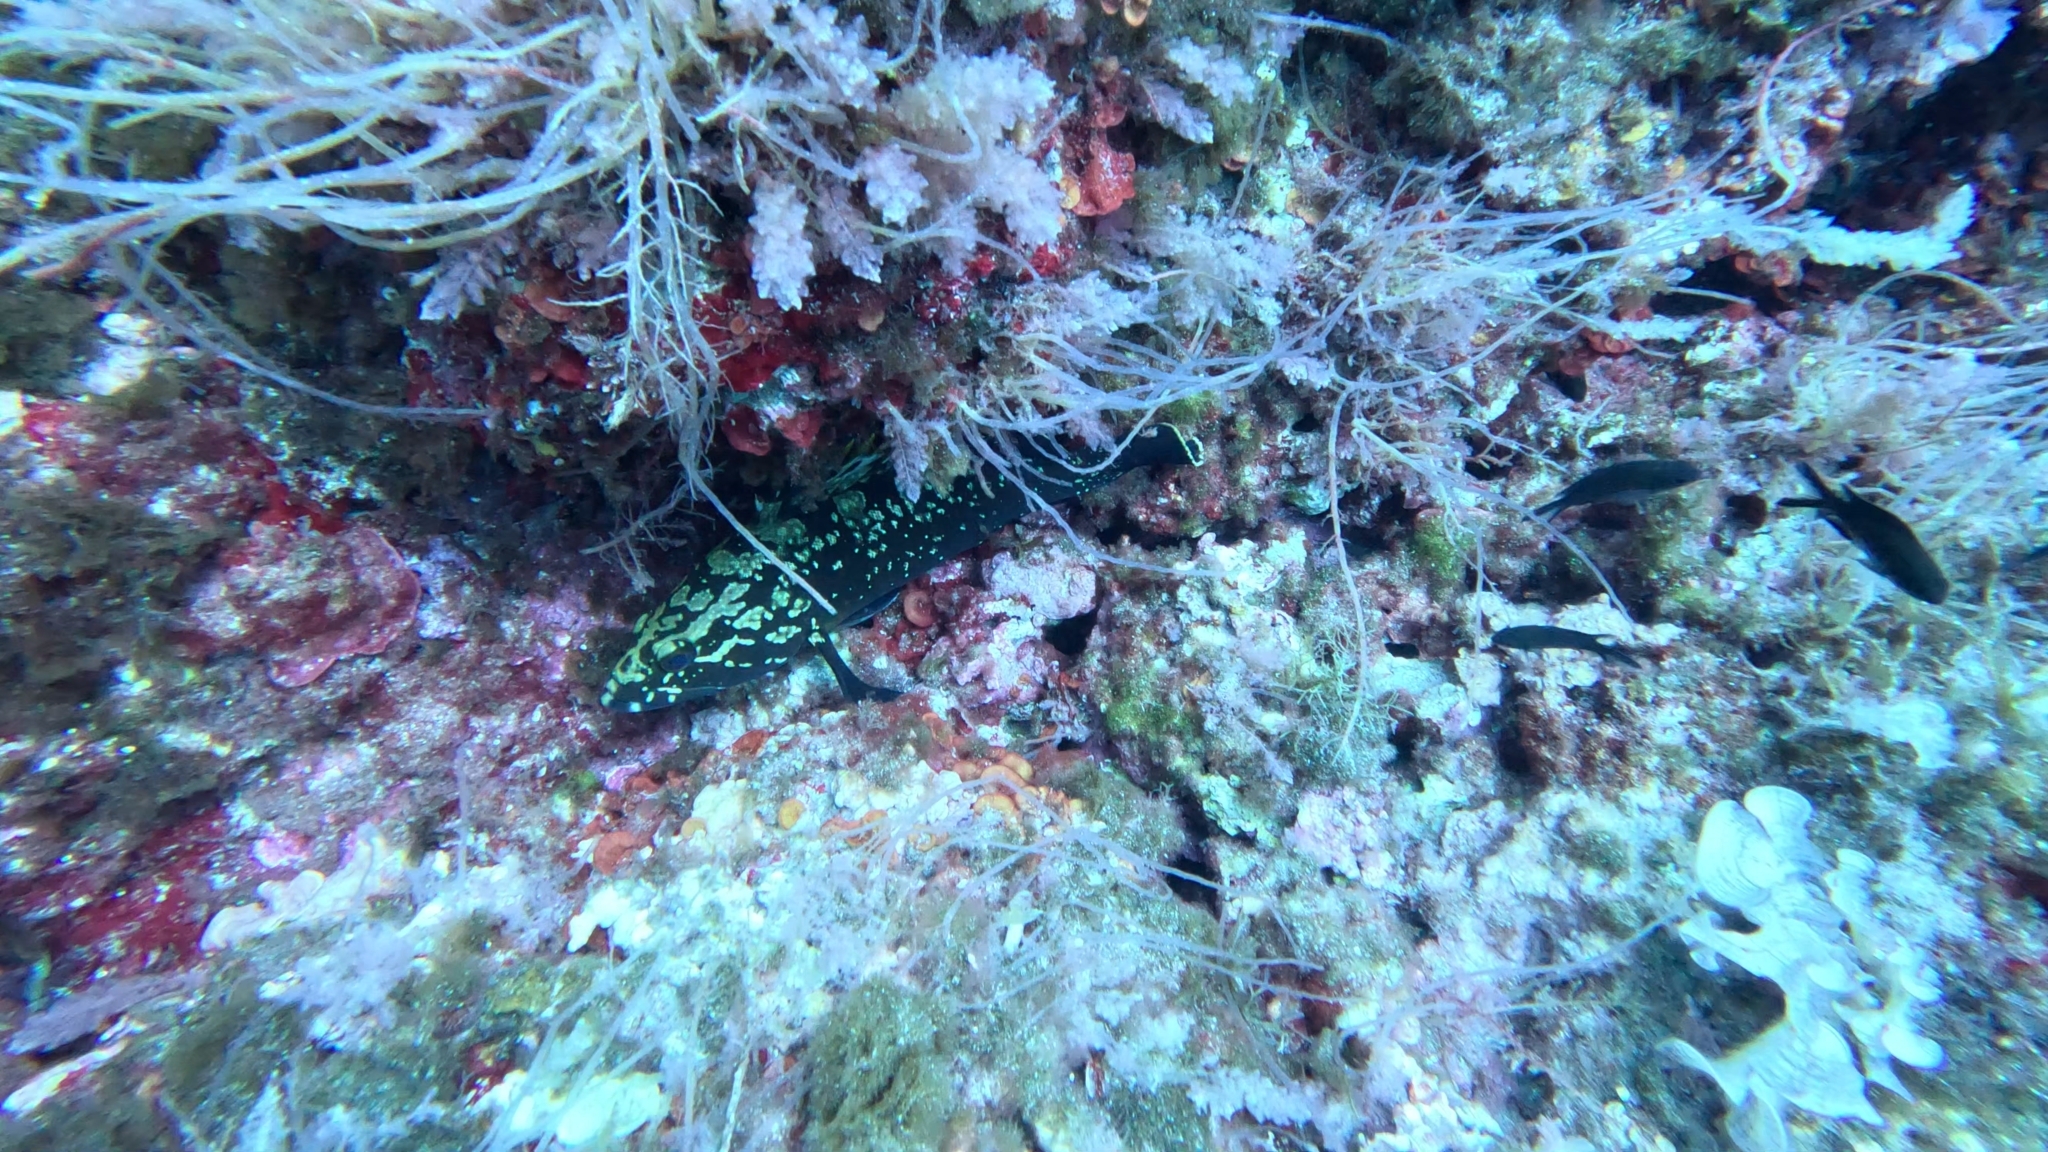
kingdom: Animalia
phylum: Chordata
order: Perciformes
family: Serranidae
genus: Epinephelus
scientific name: Epinephelus marginatus
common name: Dusky grouper
